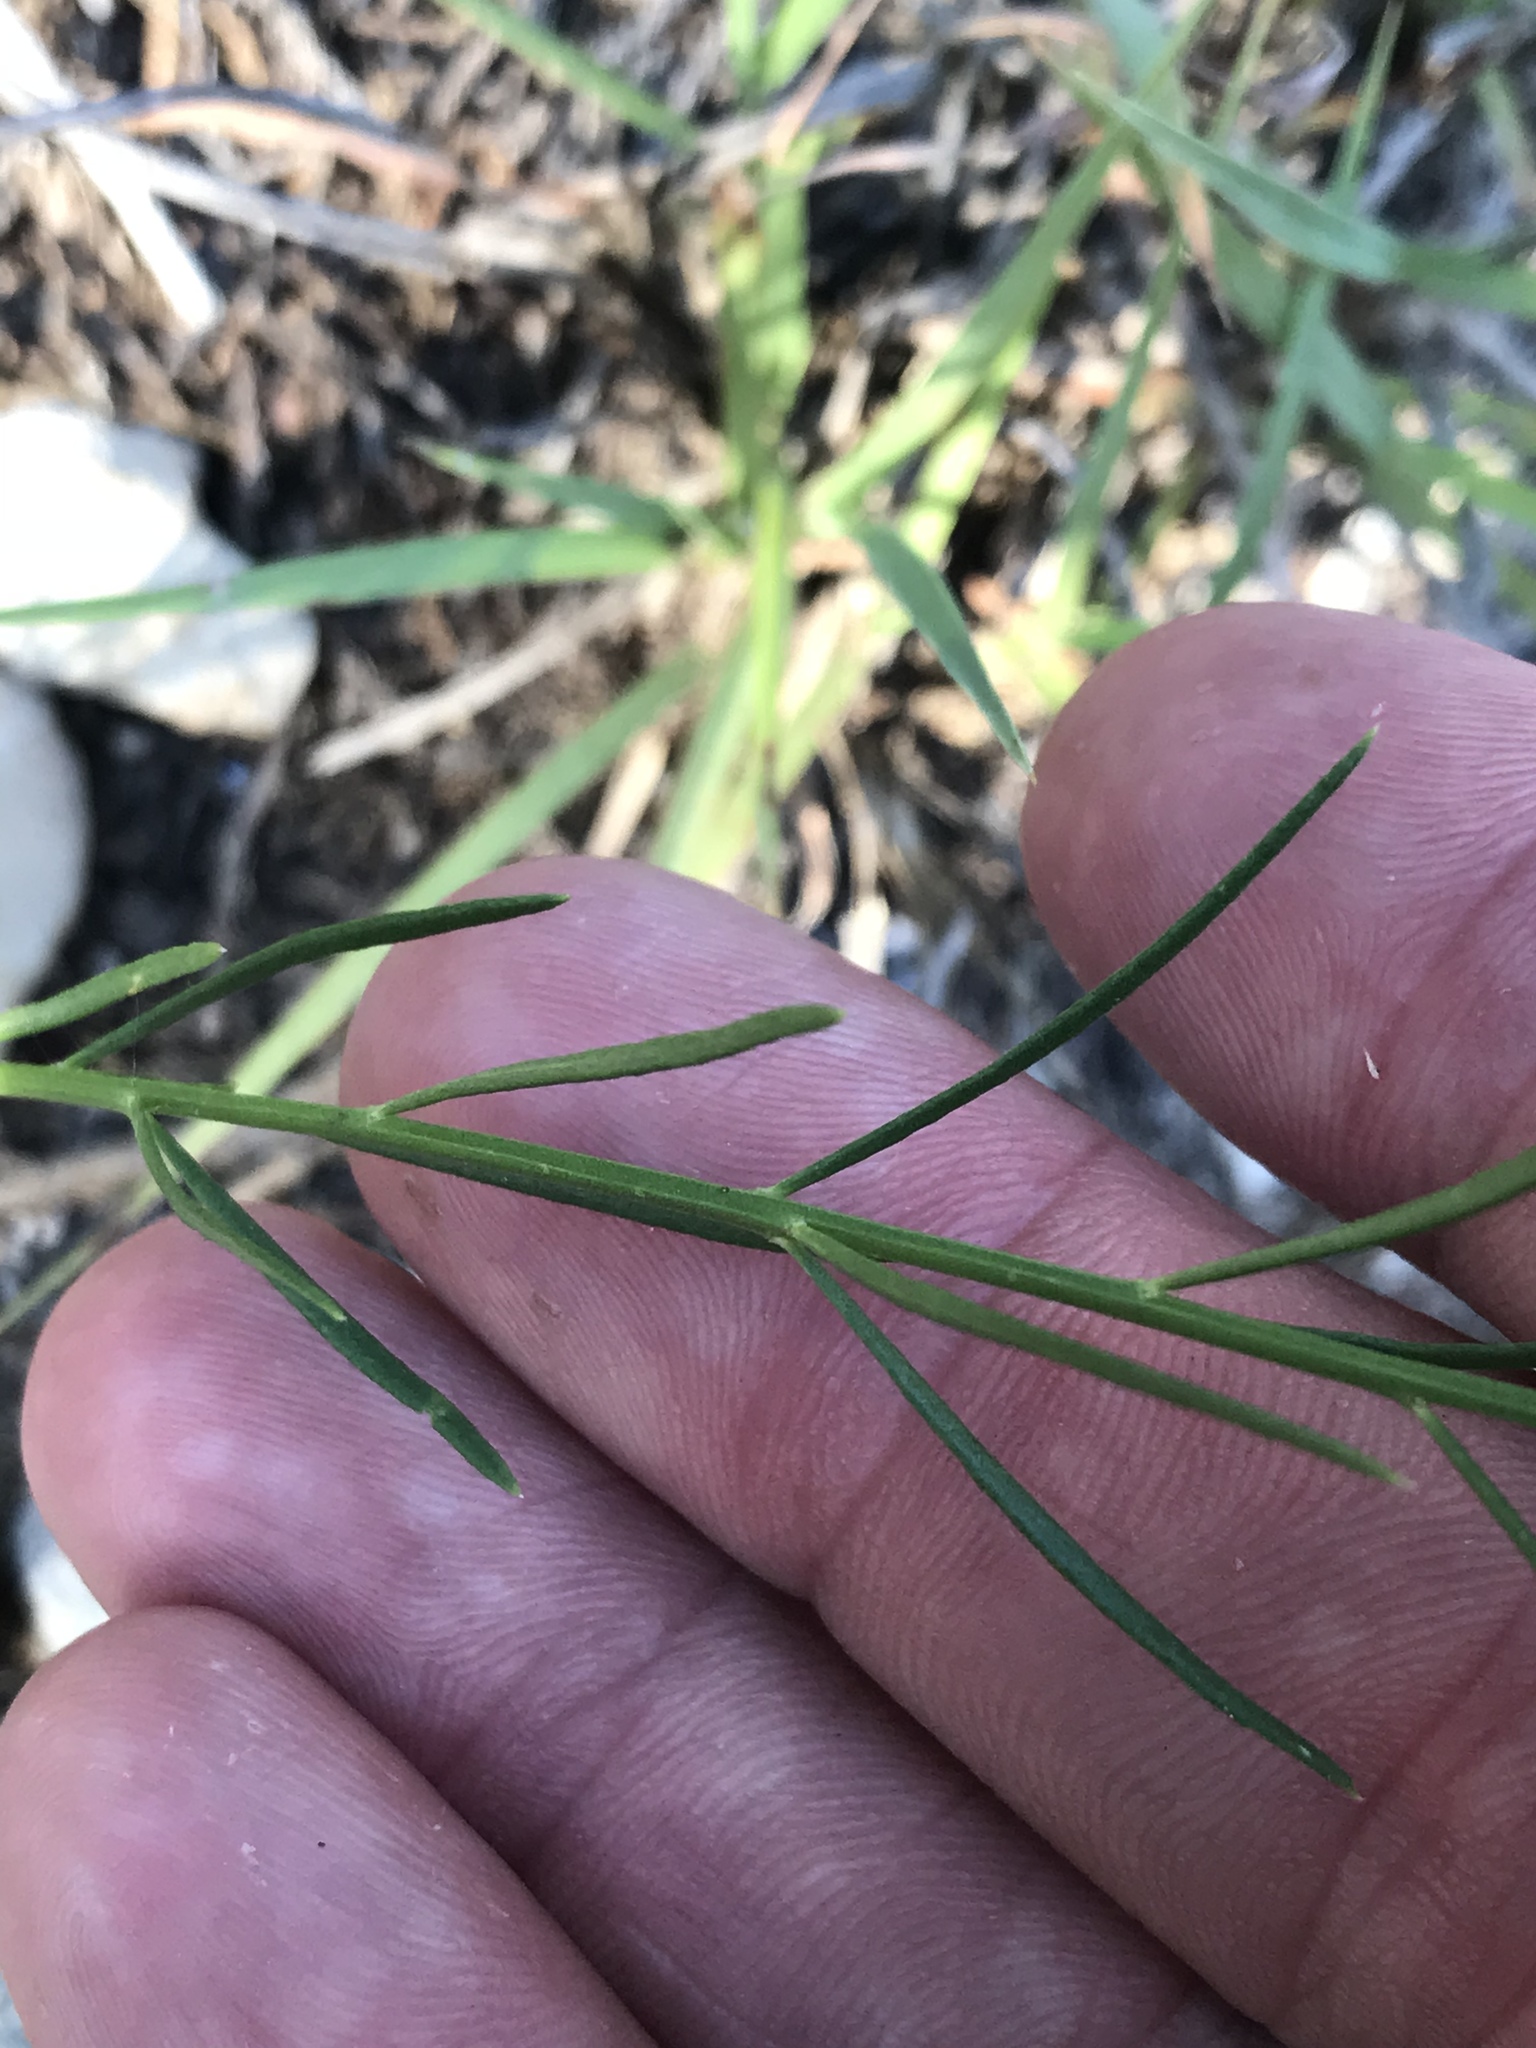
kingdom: Plantae
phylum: Tracheophyta
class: Magnoliopsida
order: Fabales
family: Polygalaceae
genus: Polygala
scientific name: Polygala alba
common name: White milkwort
